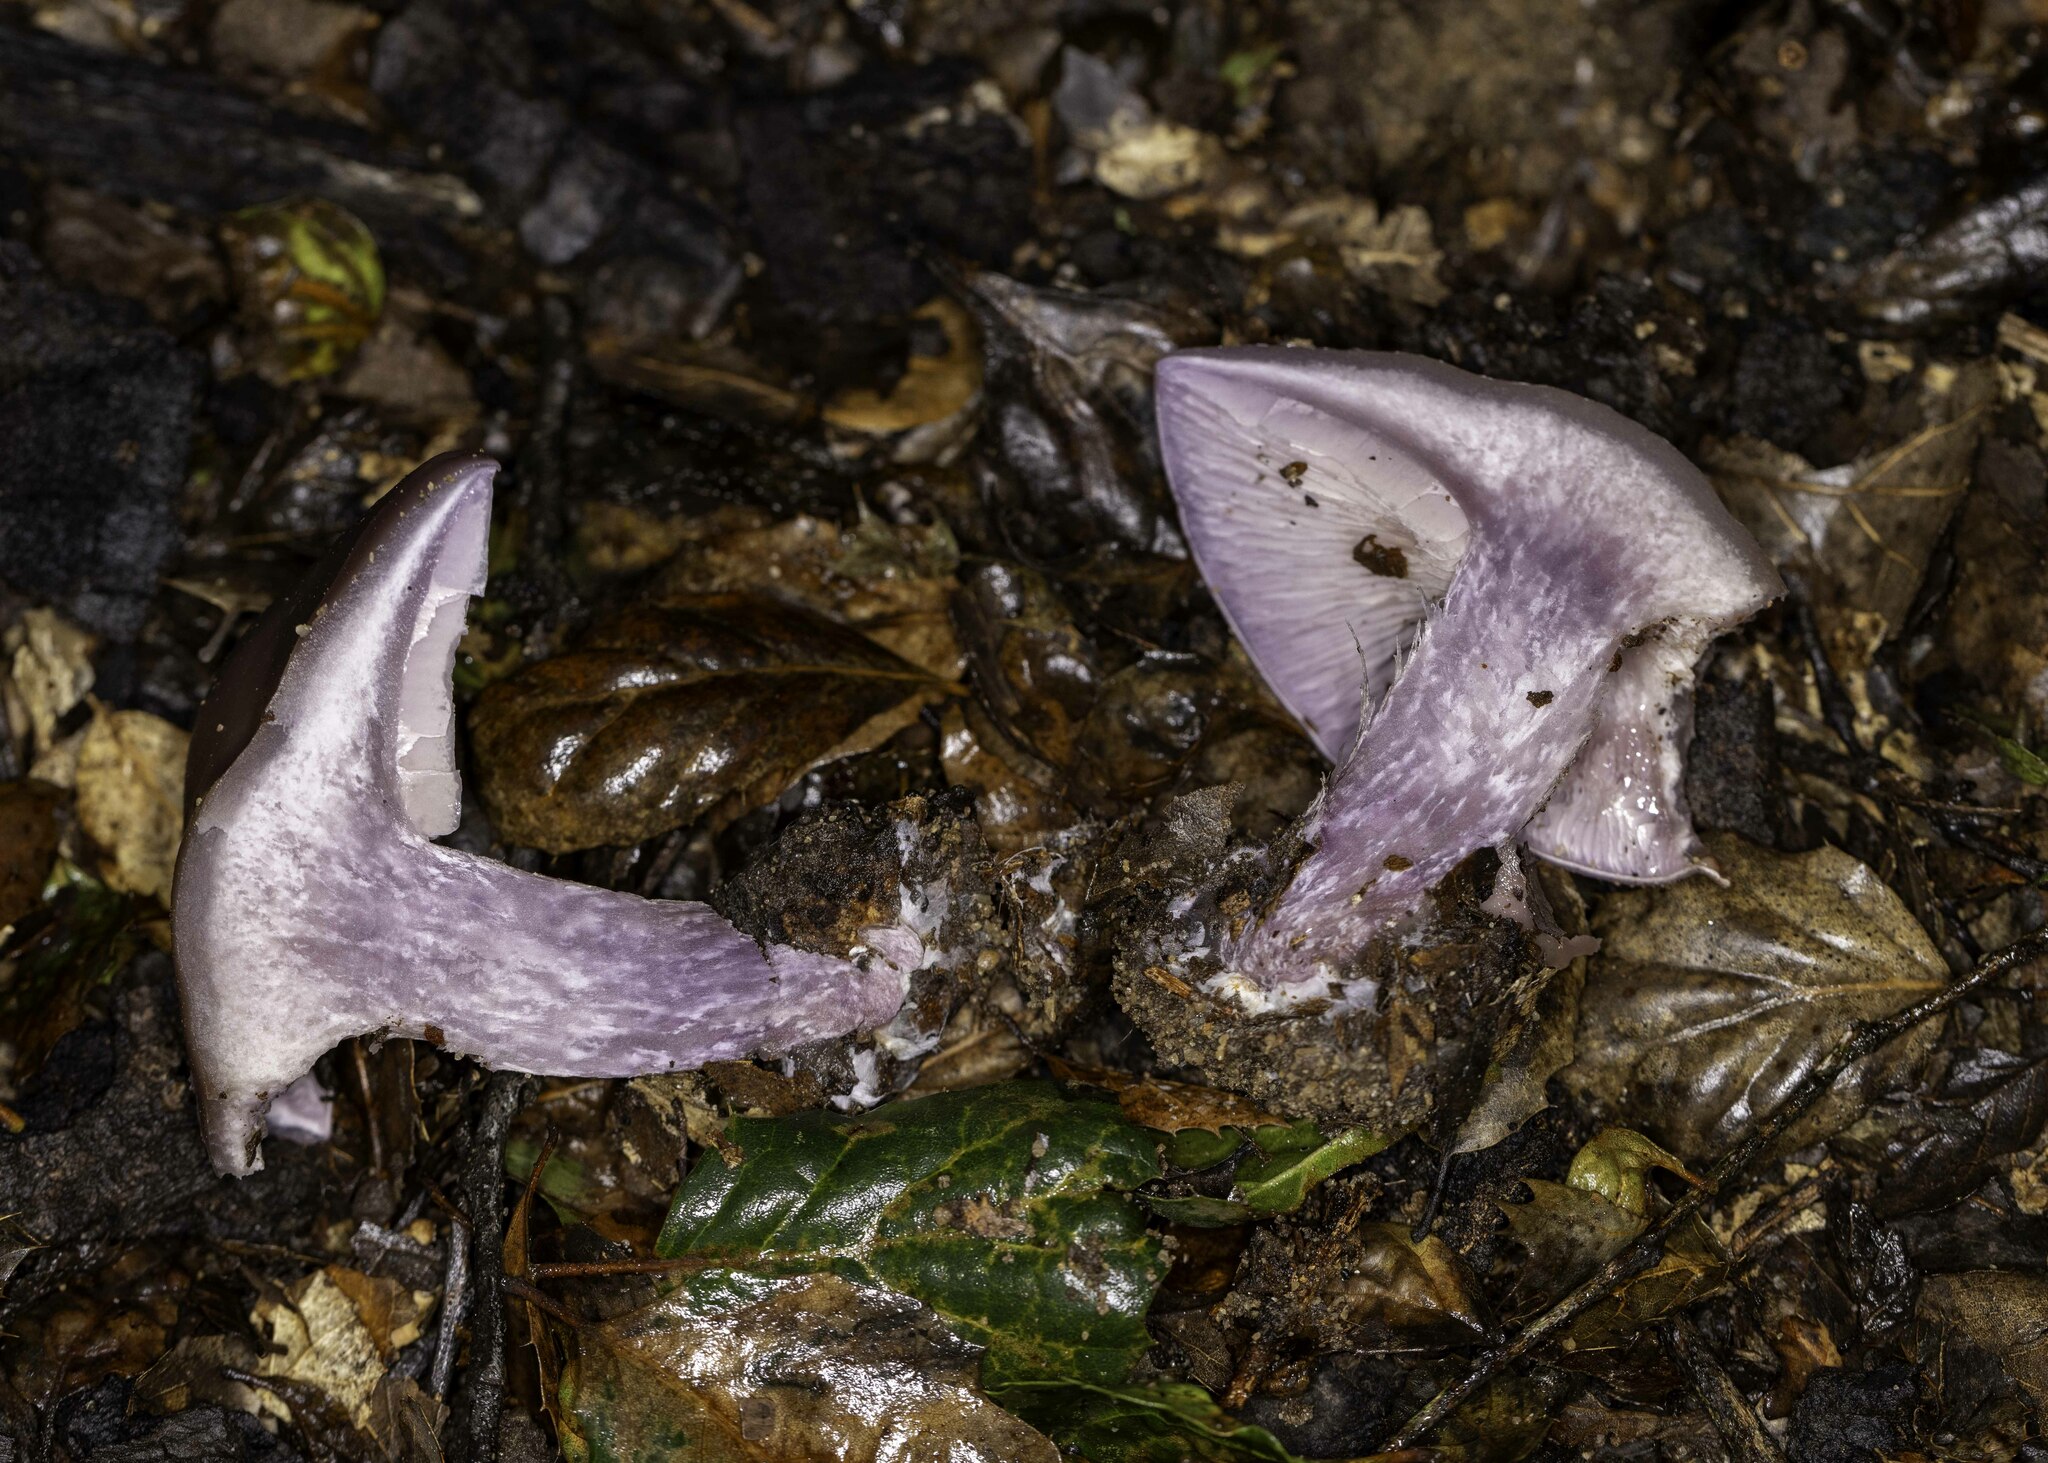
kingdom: Fungi
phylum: Basidiomycota
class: Agaricomycetes
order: Agaricales
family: Tricholomataceae
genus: Collybia
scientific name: Collybia
